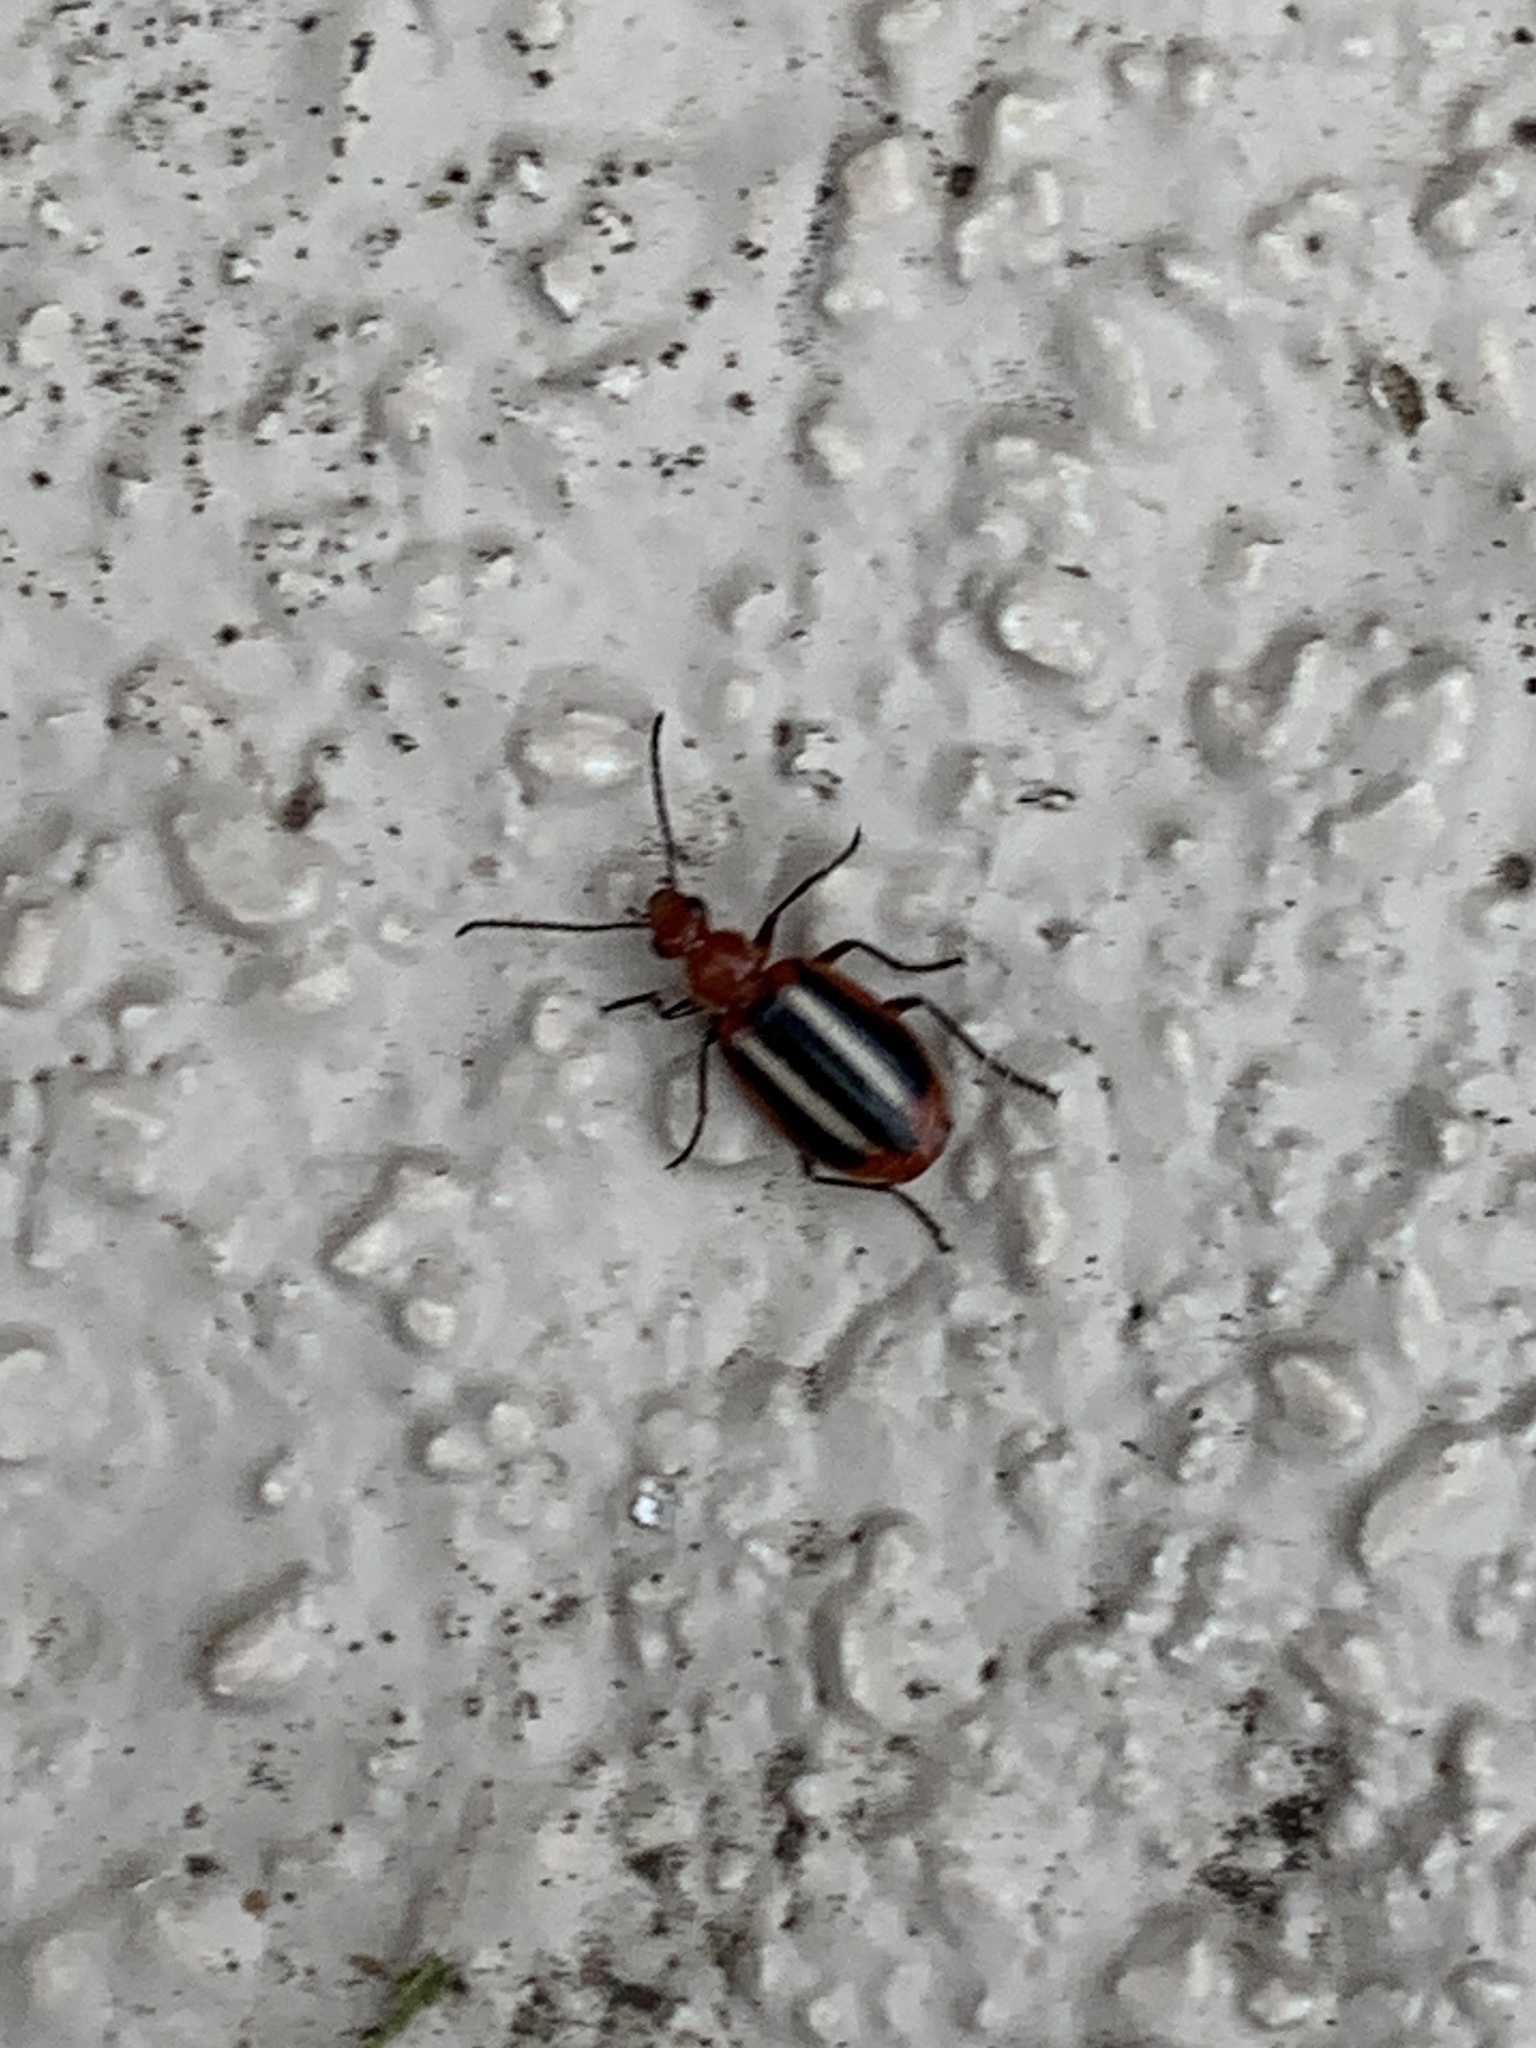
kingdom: Animalia
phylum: Arthropoda
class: Insecta
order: Coleoptera
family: Carabidae
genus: Lebia
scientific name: Lebia pectita
